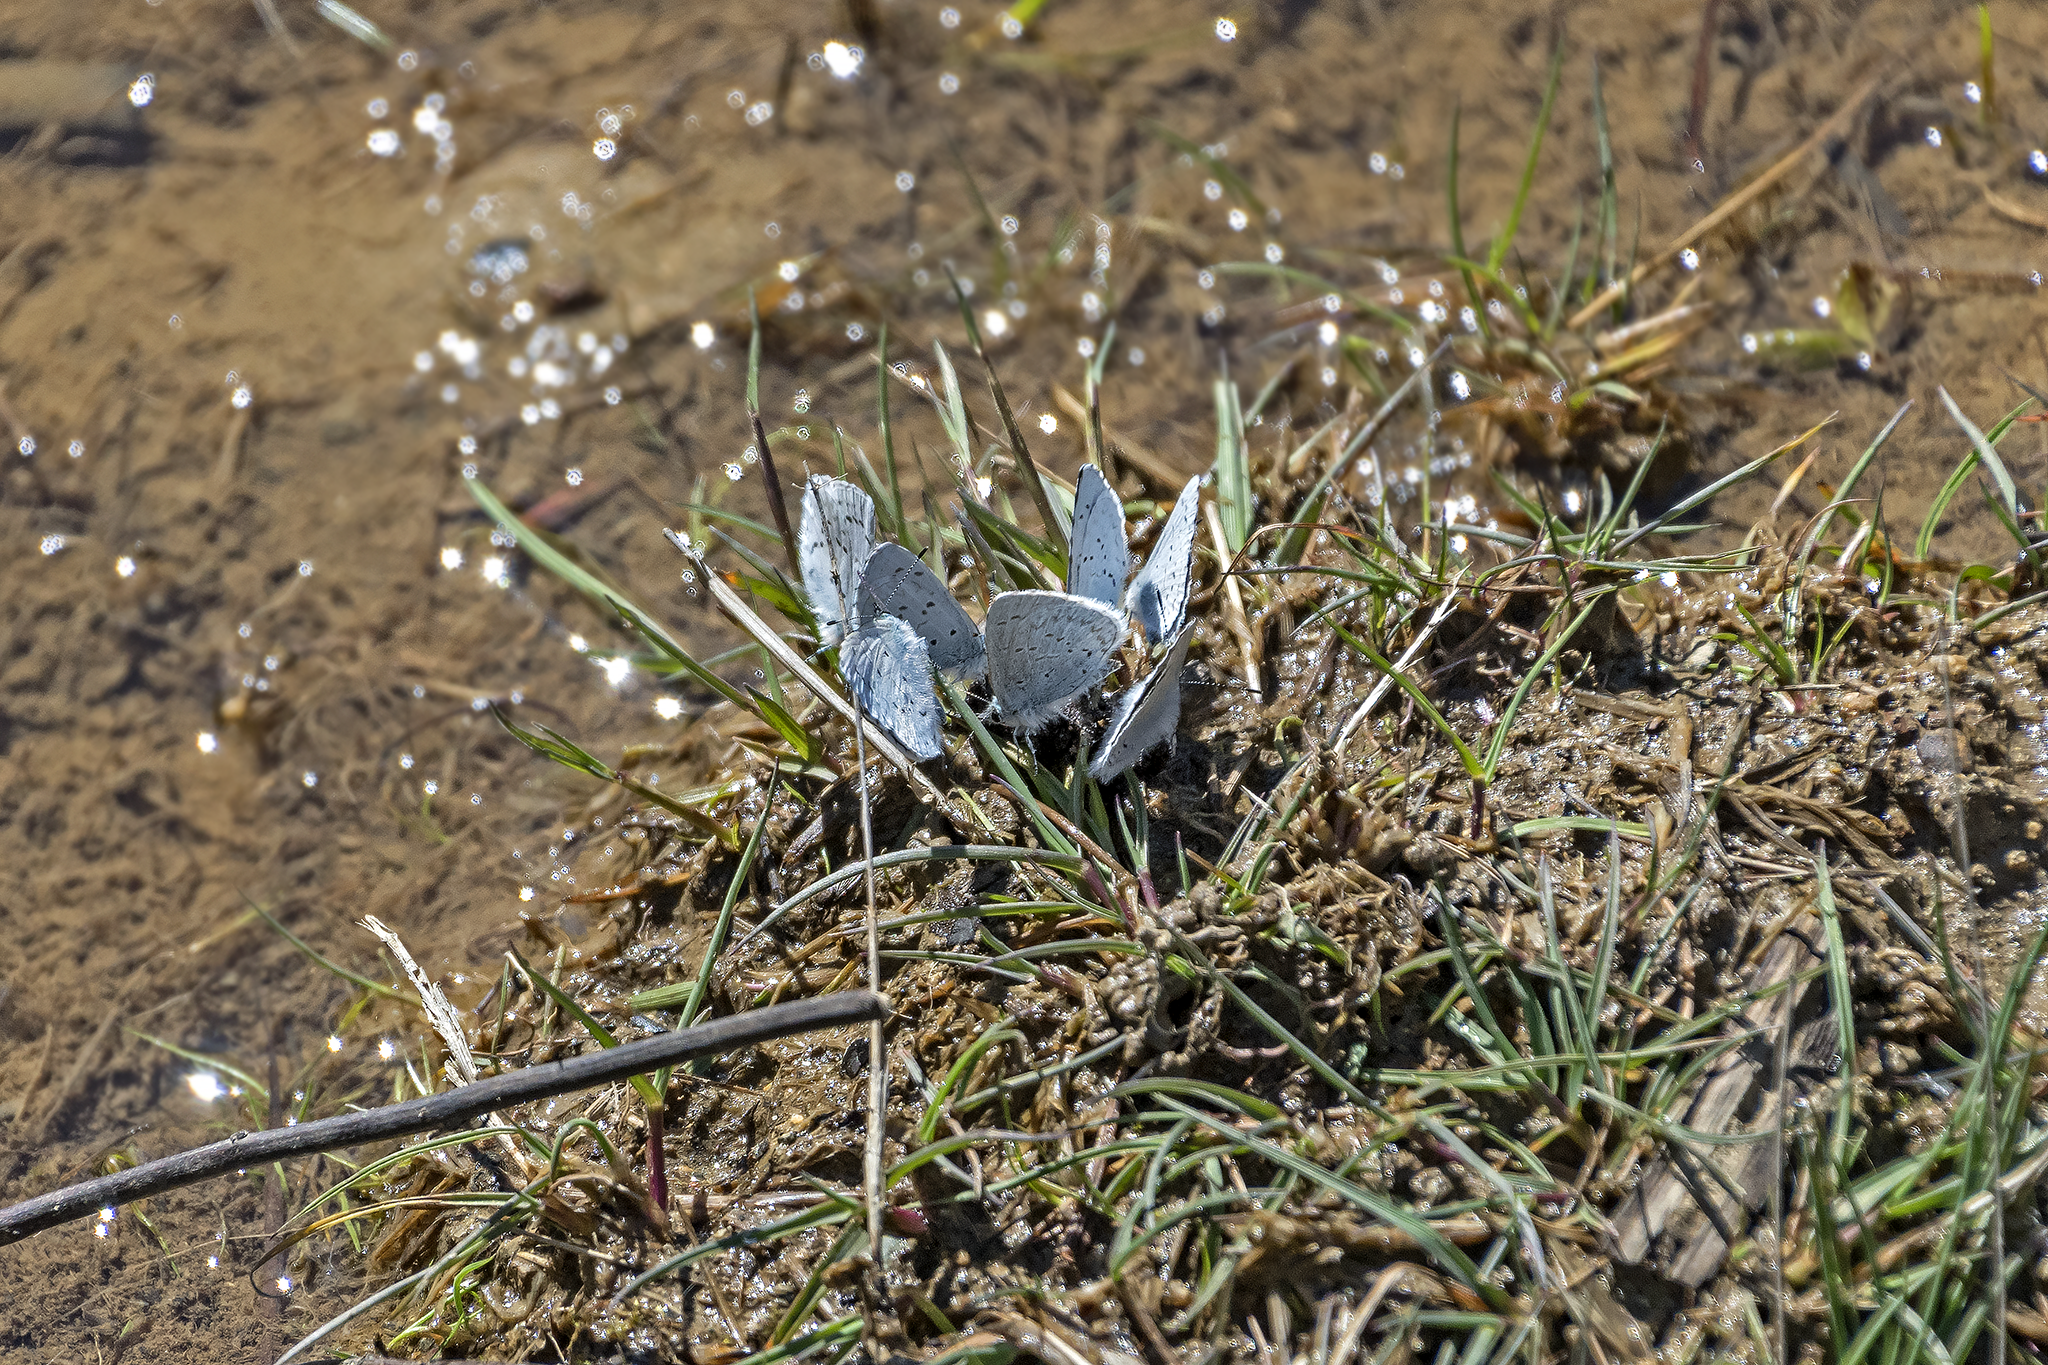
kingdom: Animalia
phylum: Arthropoda
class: Insecta
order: Lepidoptera
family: Lycaenidae
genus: Celastrina
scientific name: Celastrina ladon
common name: Spring azure
